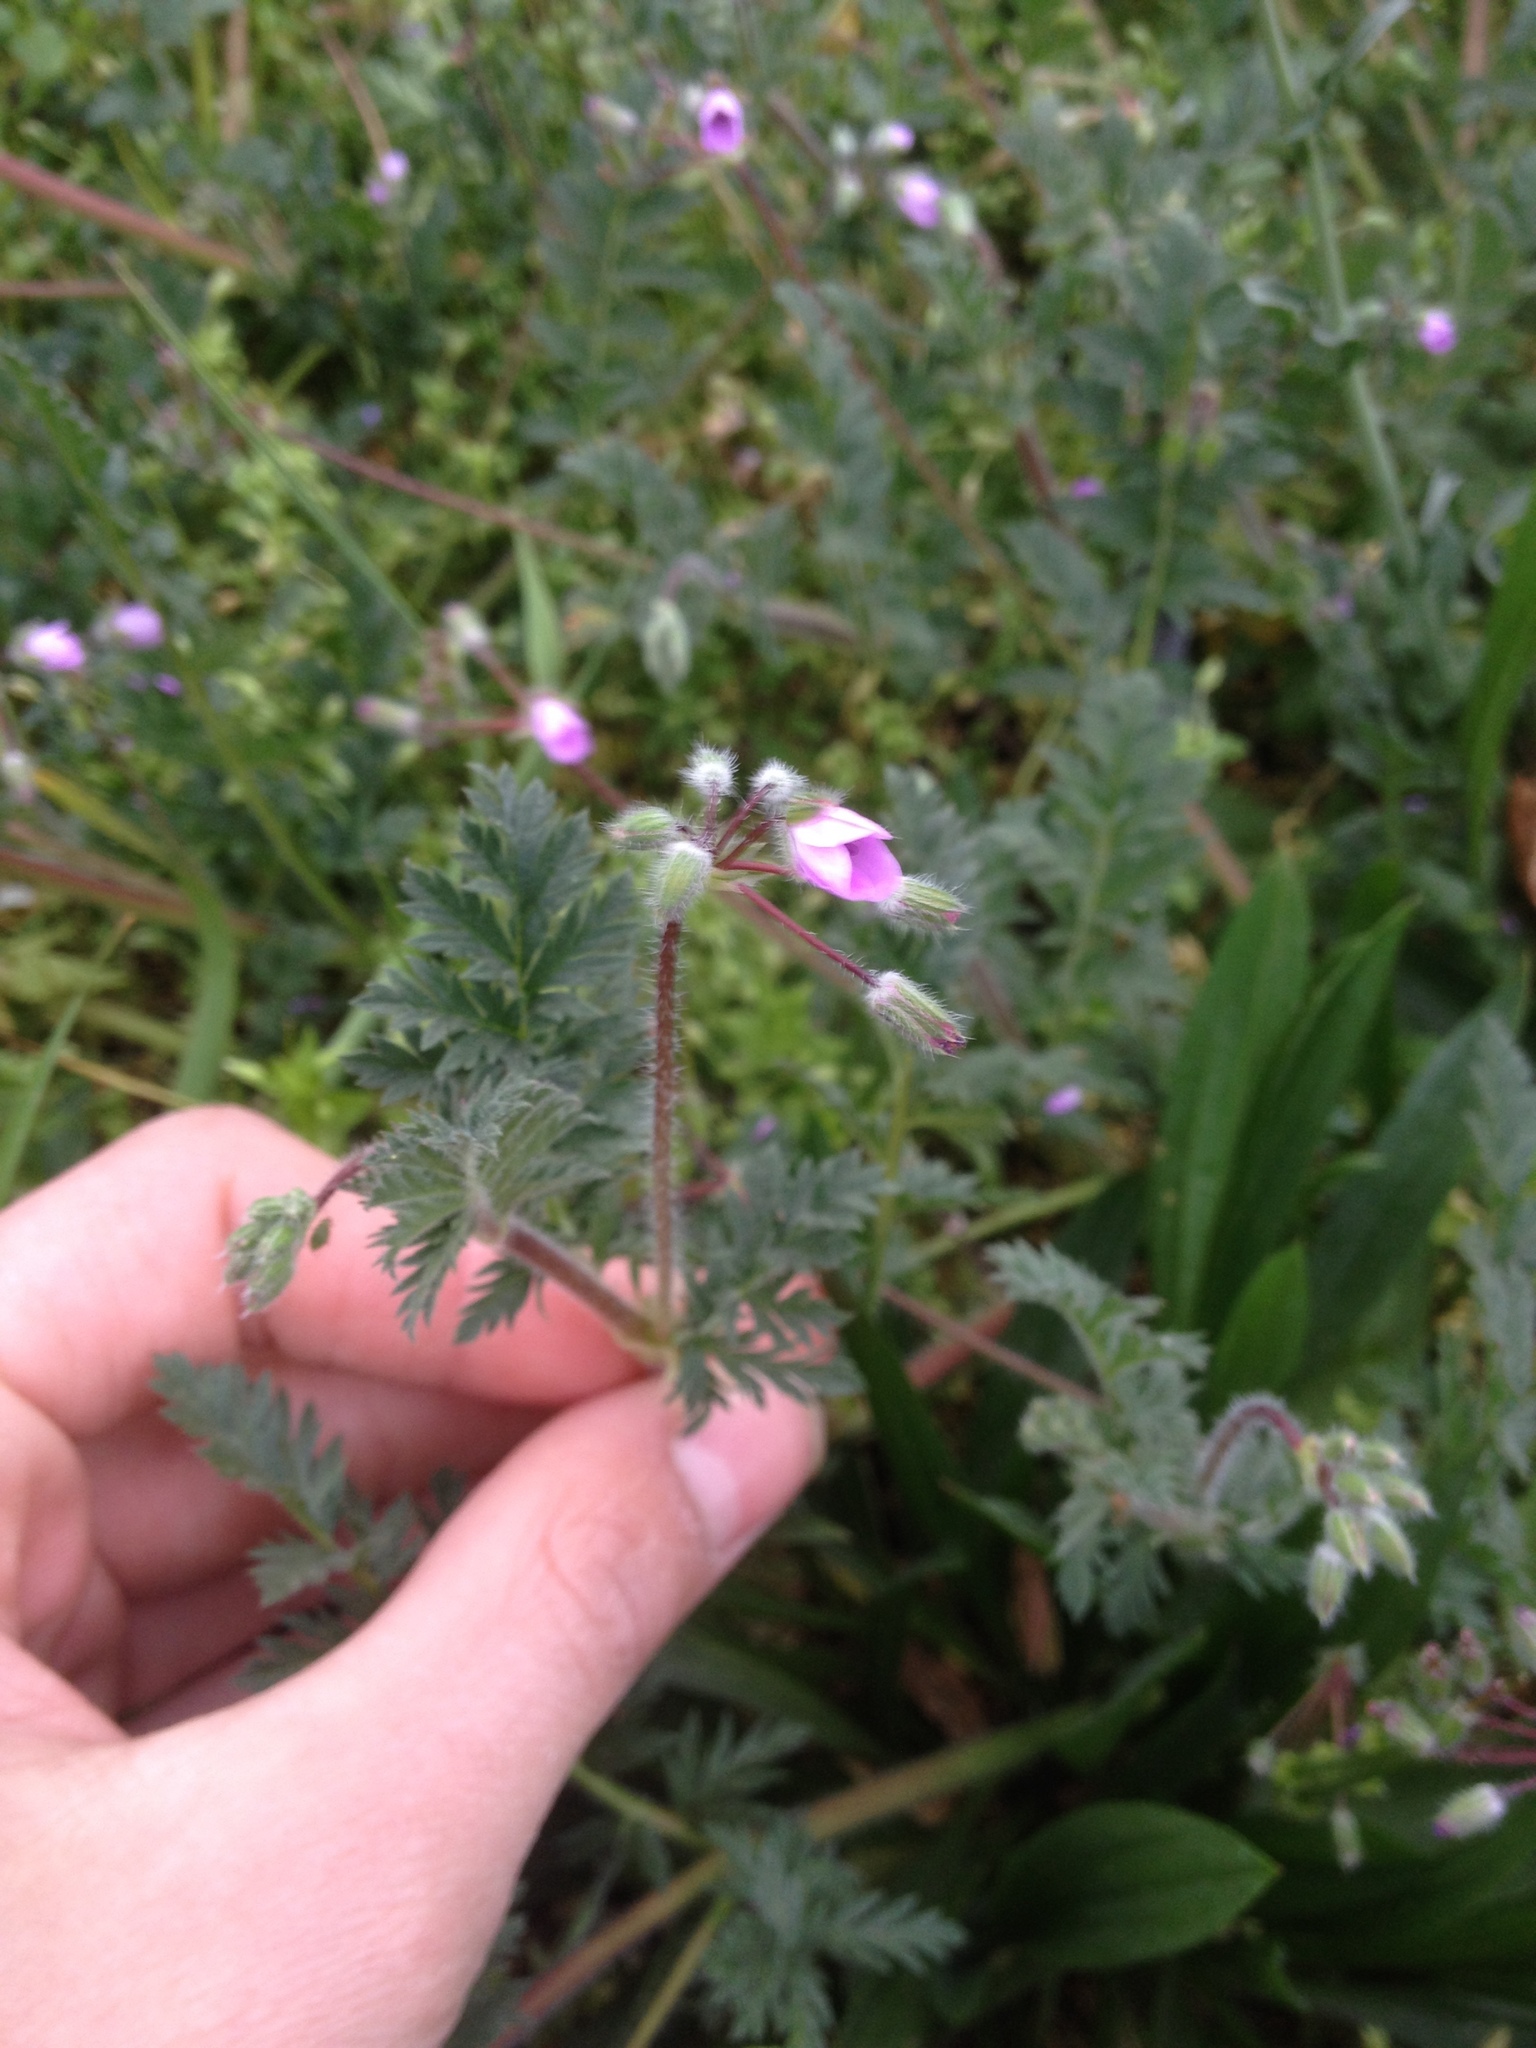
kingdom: Plantae
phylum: Tracheophyta
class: Magnoliopsida
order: Geraniales
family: Geraniaceae
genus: Erodium
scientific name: Erodium cicutarium
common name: Common stork's-bill
